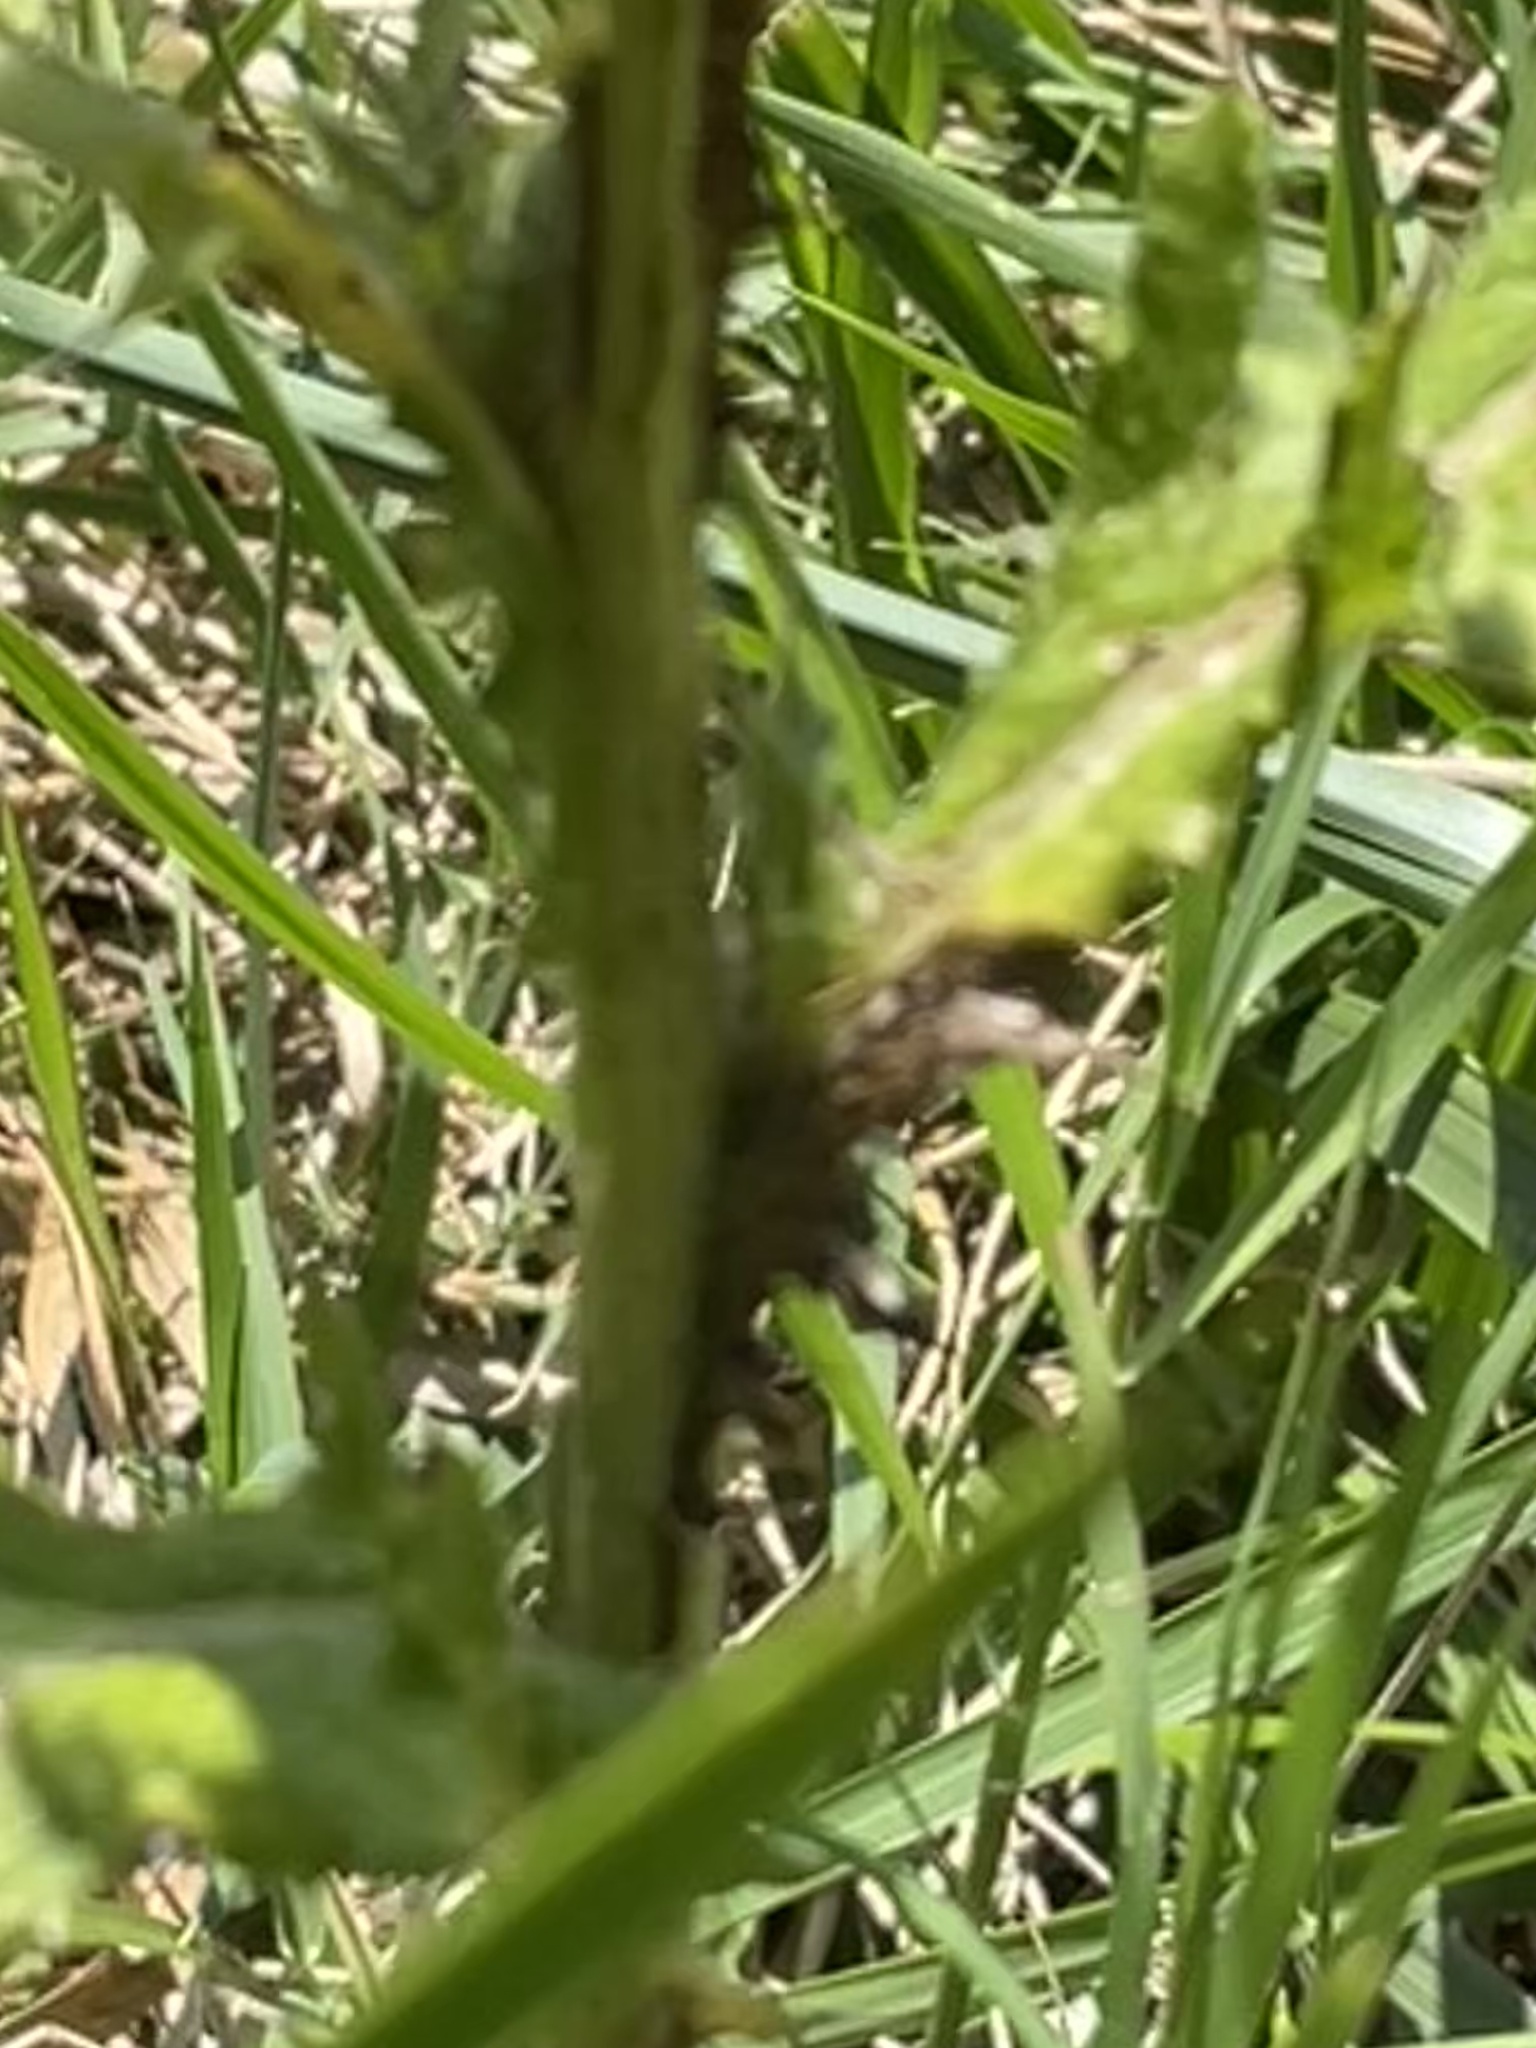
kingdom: Plantae
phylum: Tracheophyta
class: Magnoliopsida
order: Asterales
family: Asteraceae
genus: Cirsium
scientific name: Cirsium vulgare
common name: Bull thistle
